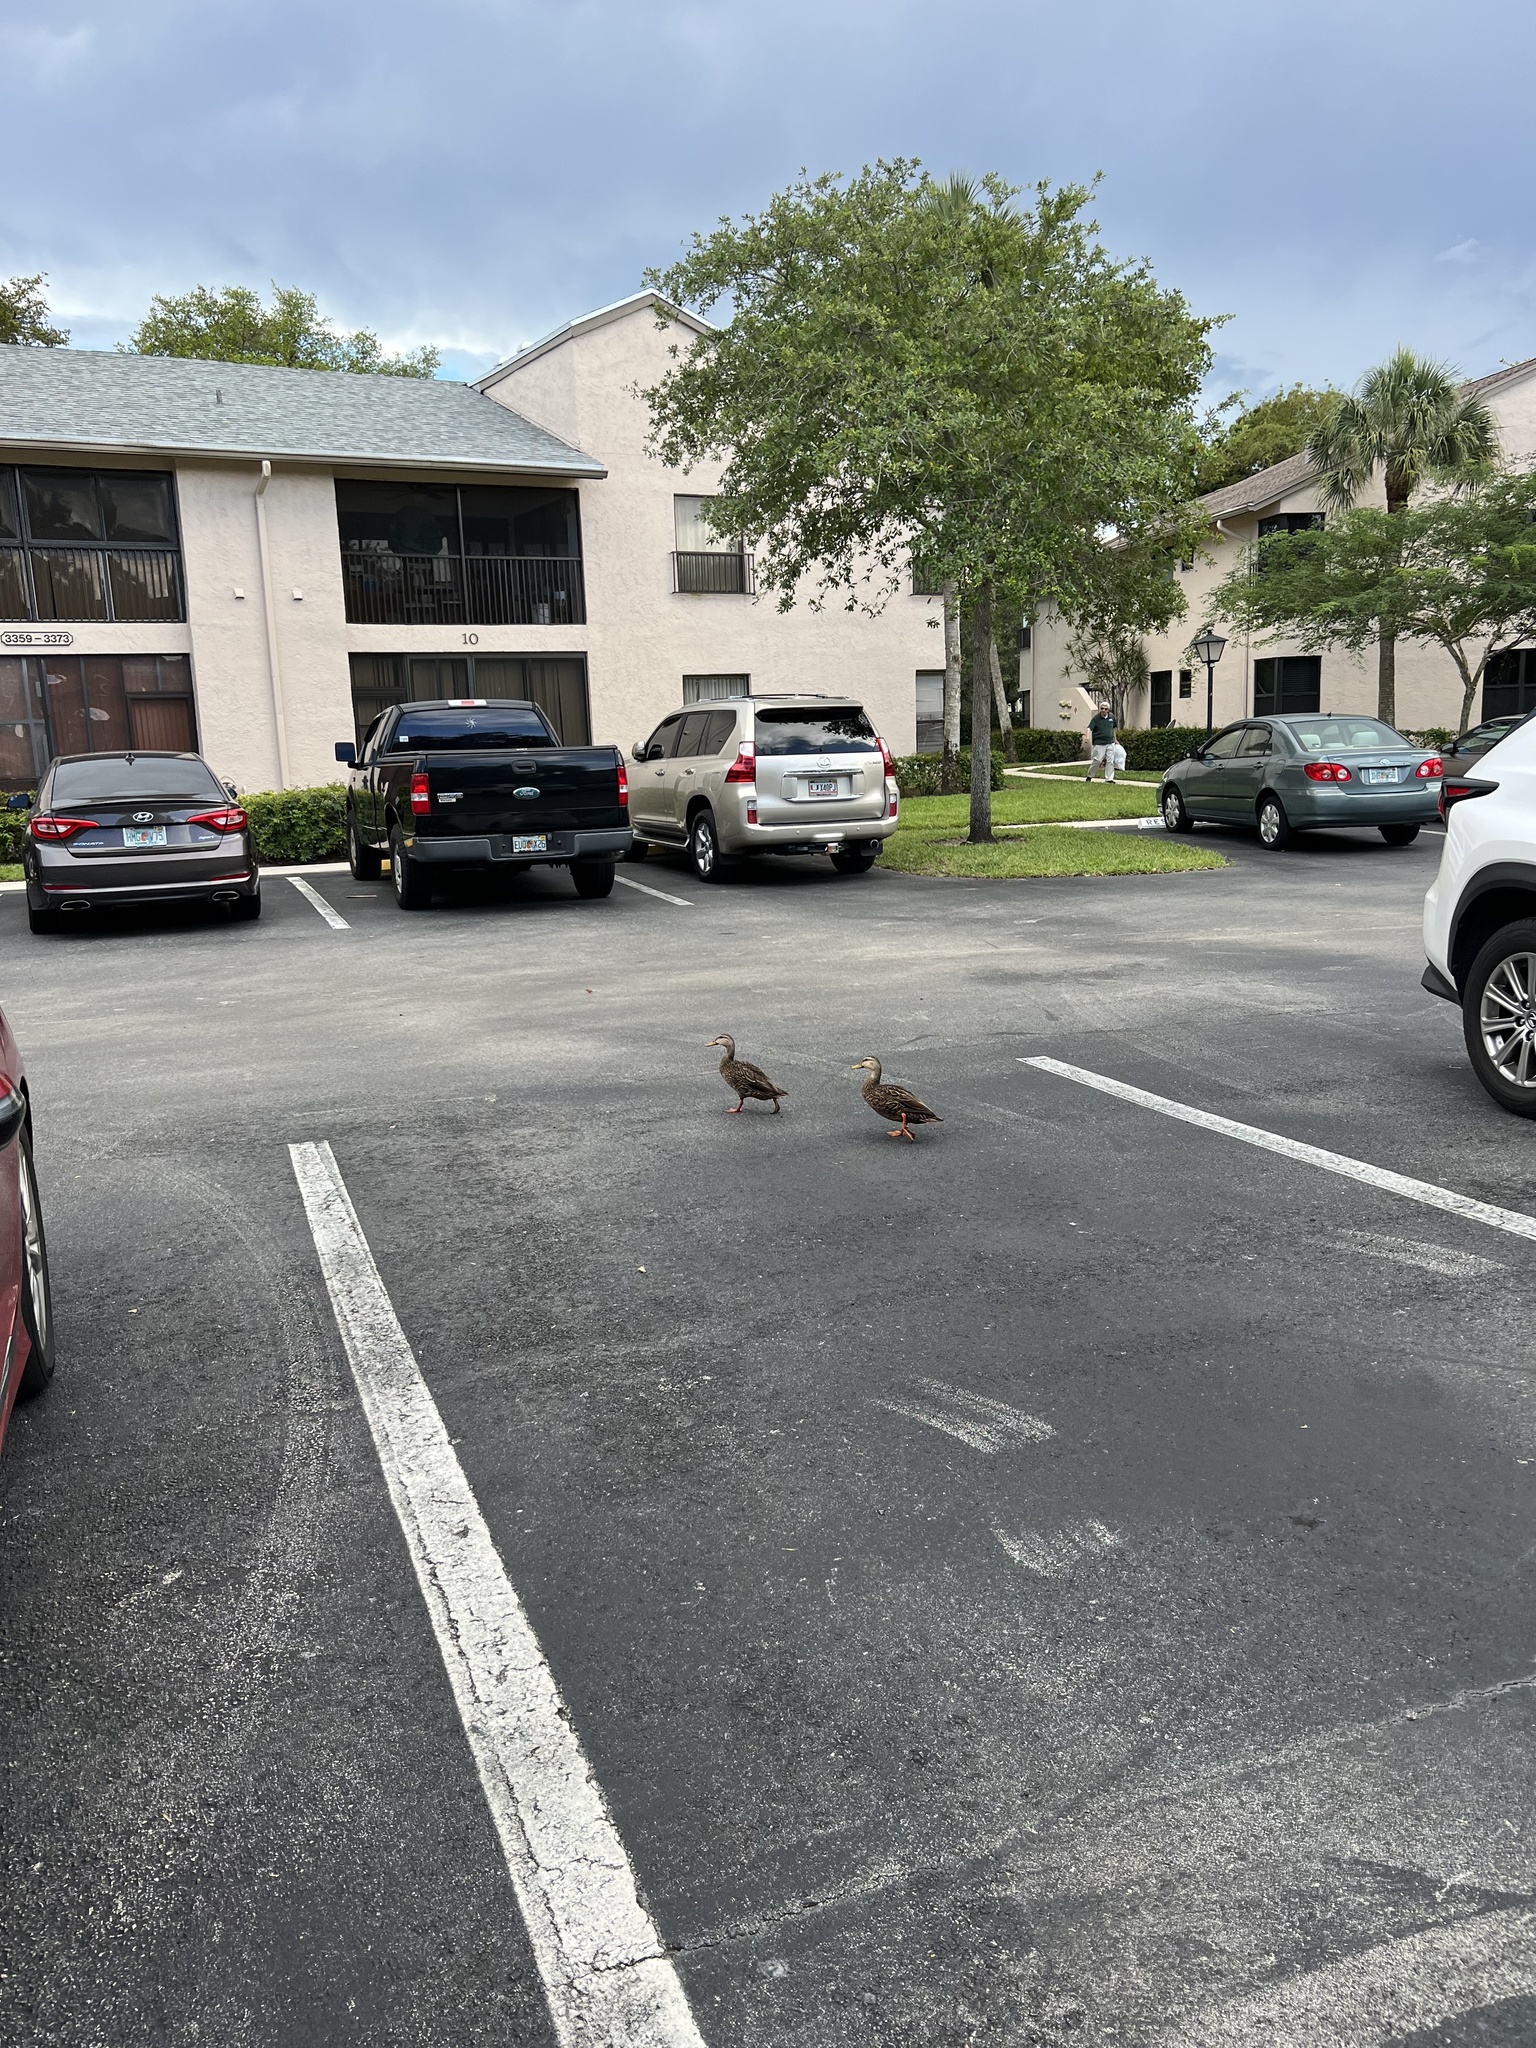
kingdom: Animalia
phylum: Chordata
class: Aves
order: Anseriformes
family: Anatidae
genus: Anas
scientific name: Anas fulvigula
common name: Mottled duck
